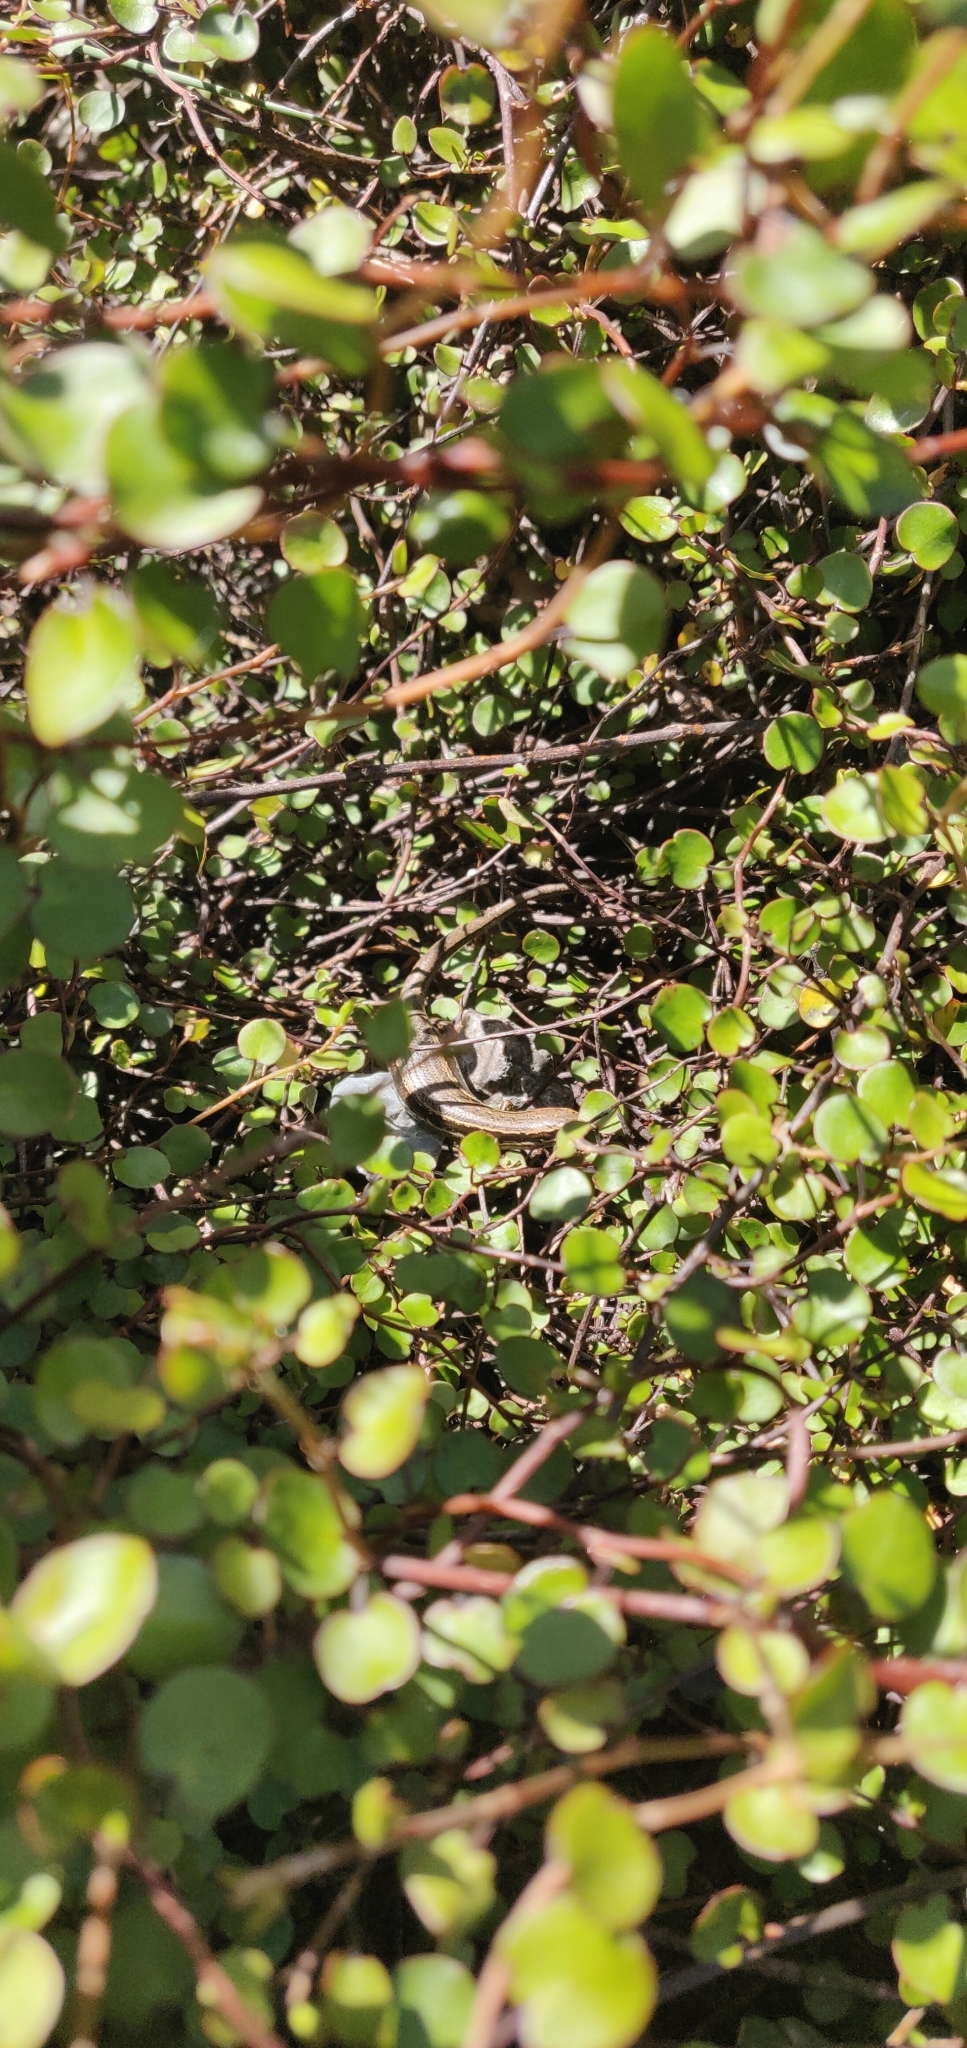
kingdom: Animalia
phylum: Chordata
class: Squamata
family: Scincidae
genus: Oligosoma
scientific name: Oligosoma polychroma
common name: Common new zealand skink
